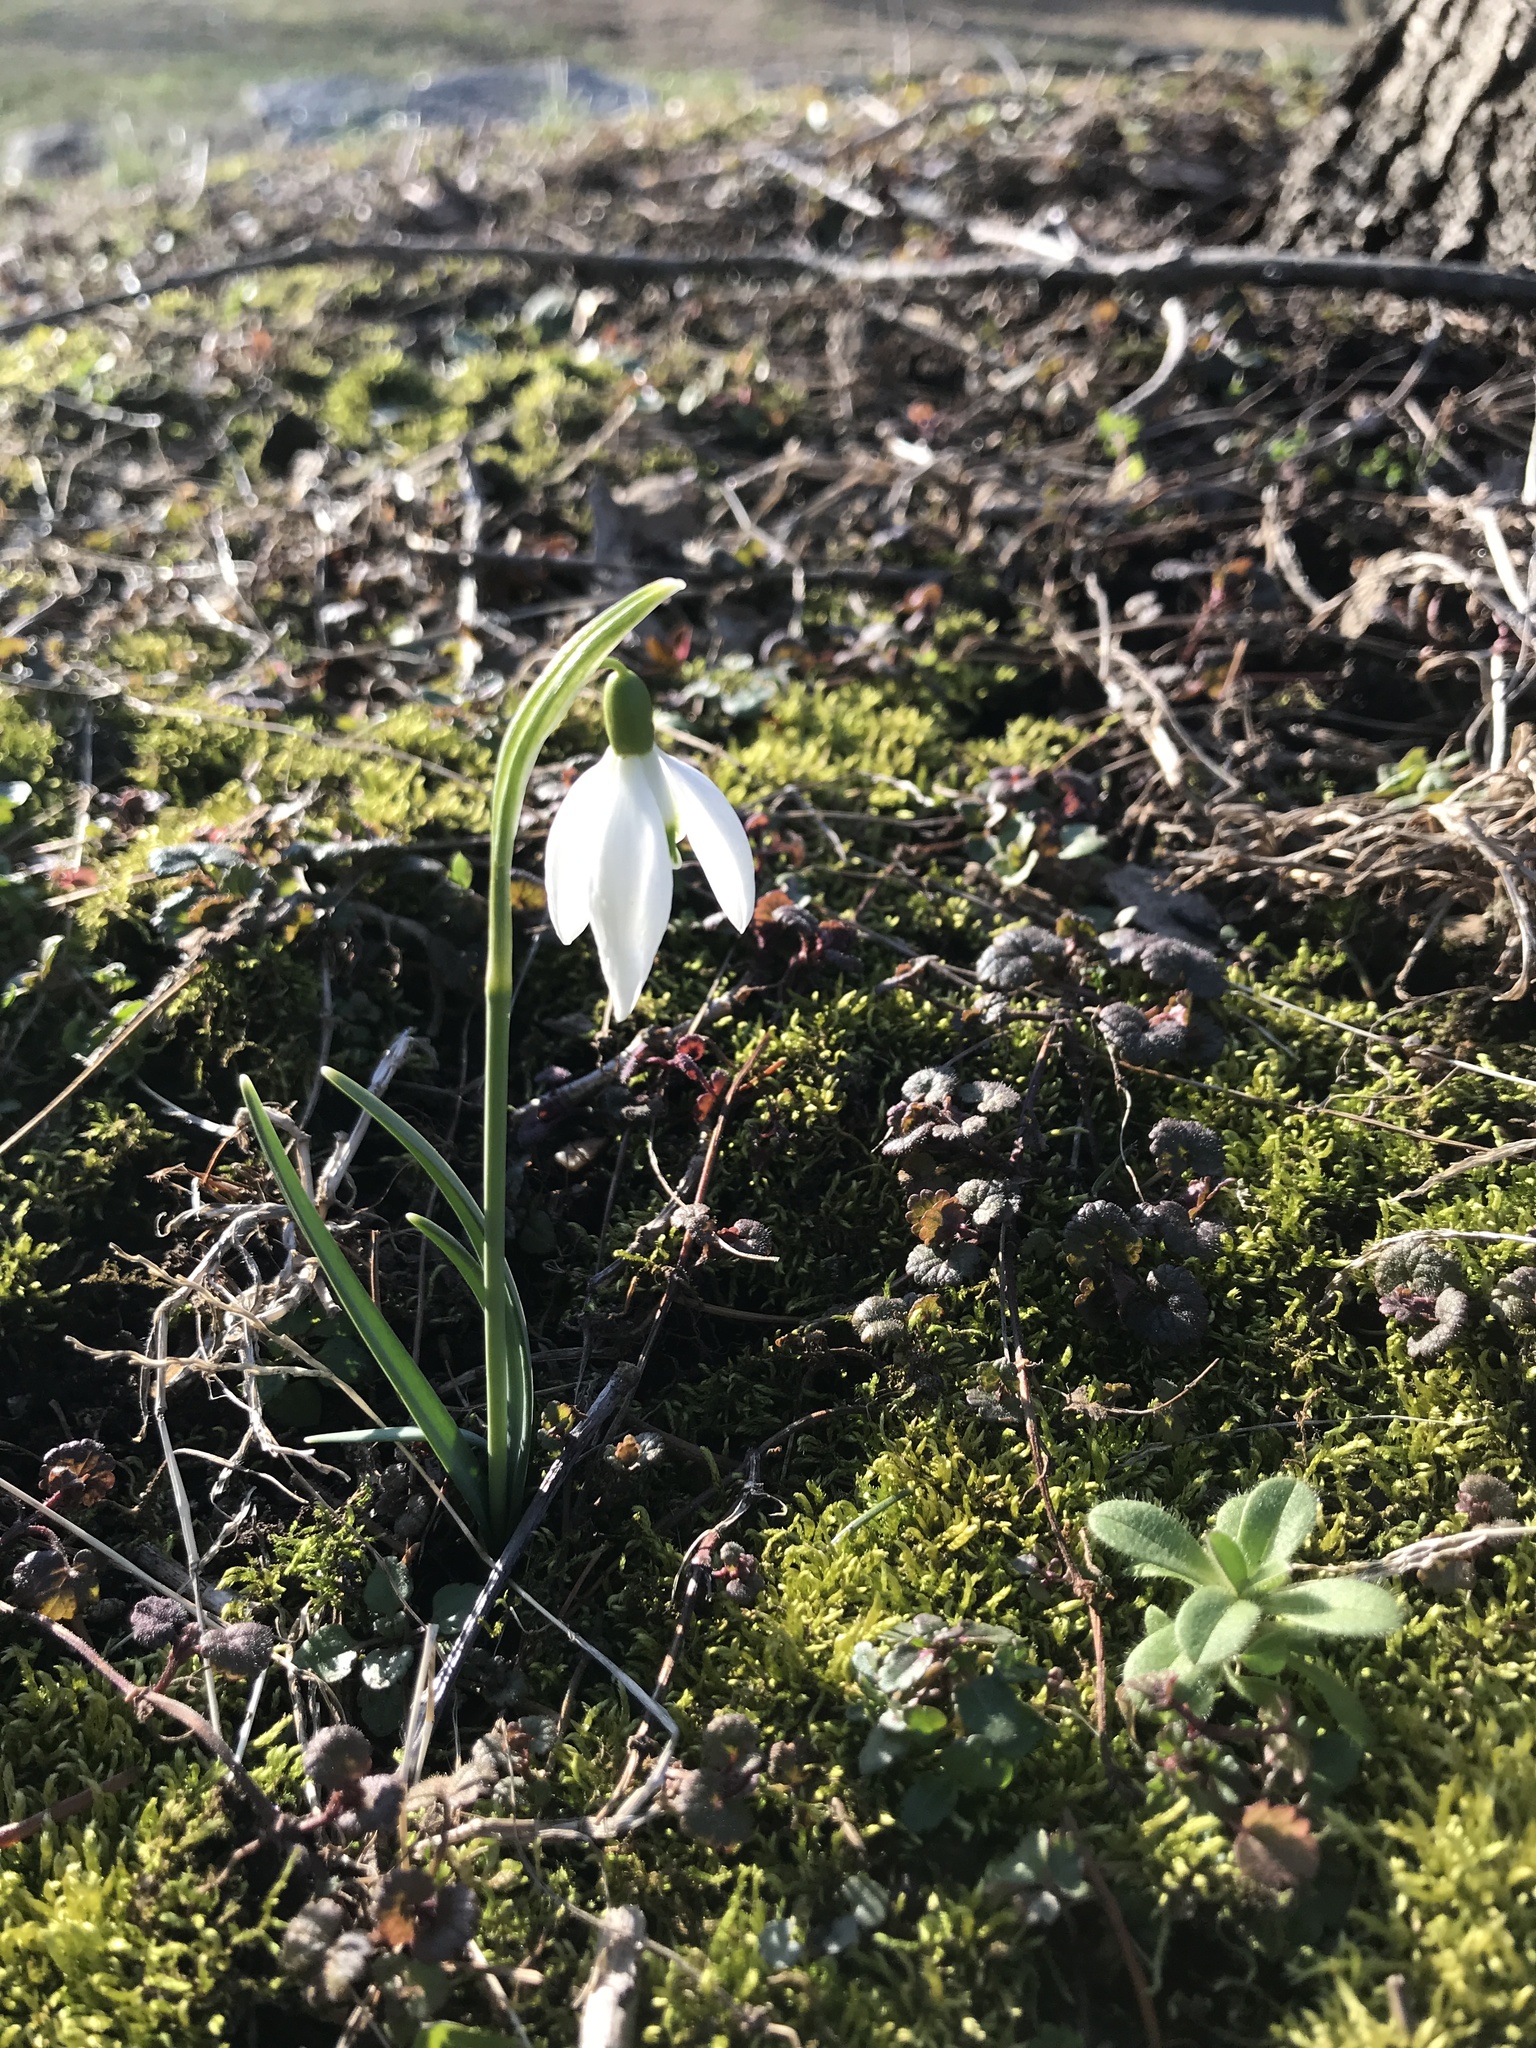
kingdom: Plantae
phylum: Tracheophyta
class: Liliopsida
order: Asparagales
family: Amaryllidaceae
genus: Galanthus
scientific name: Galanthus nivalis
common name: Snowdrop
